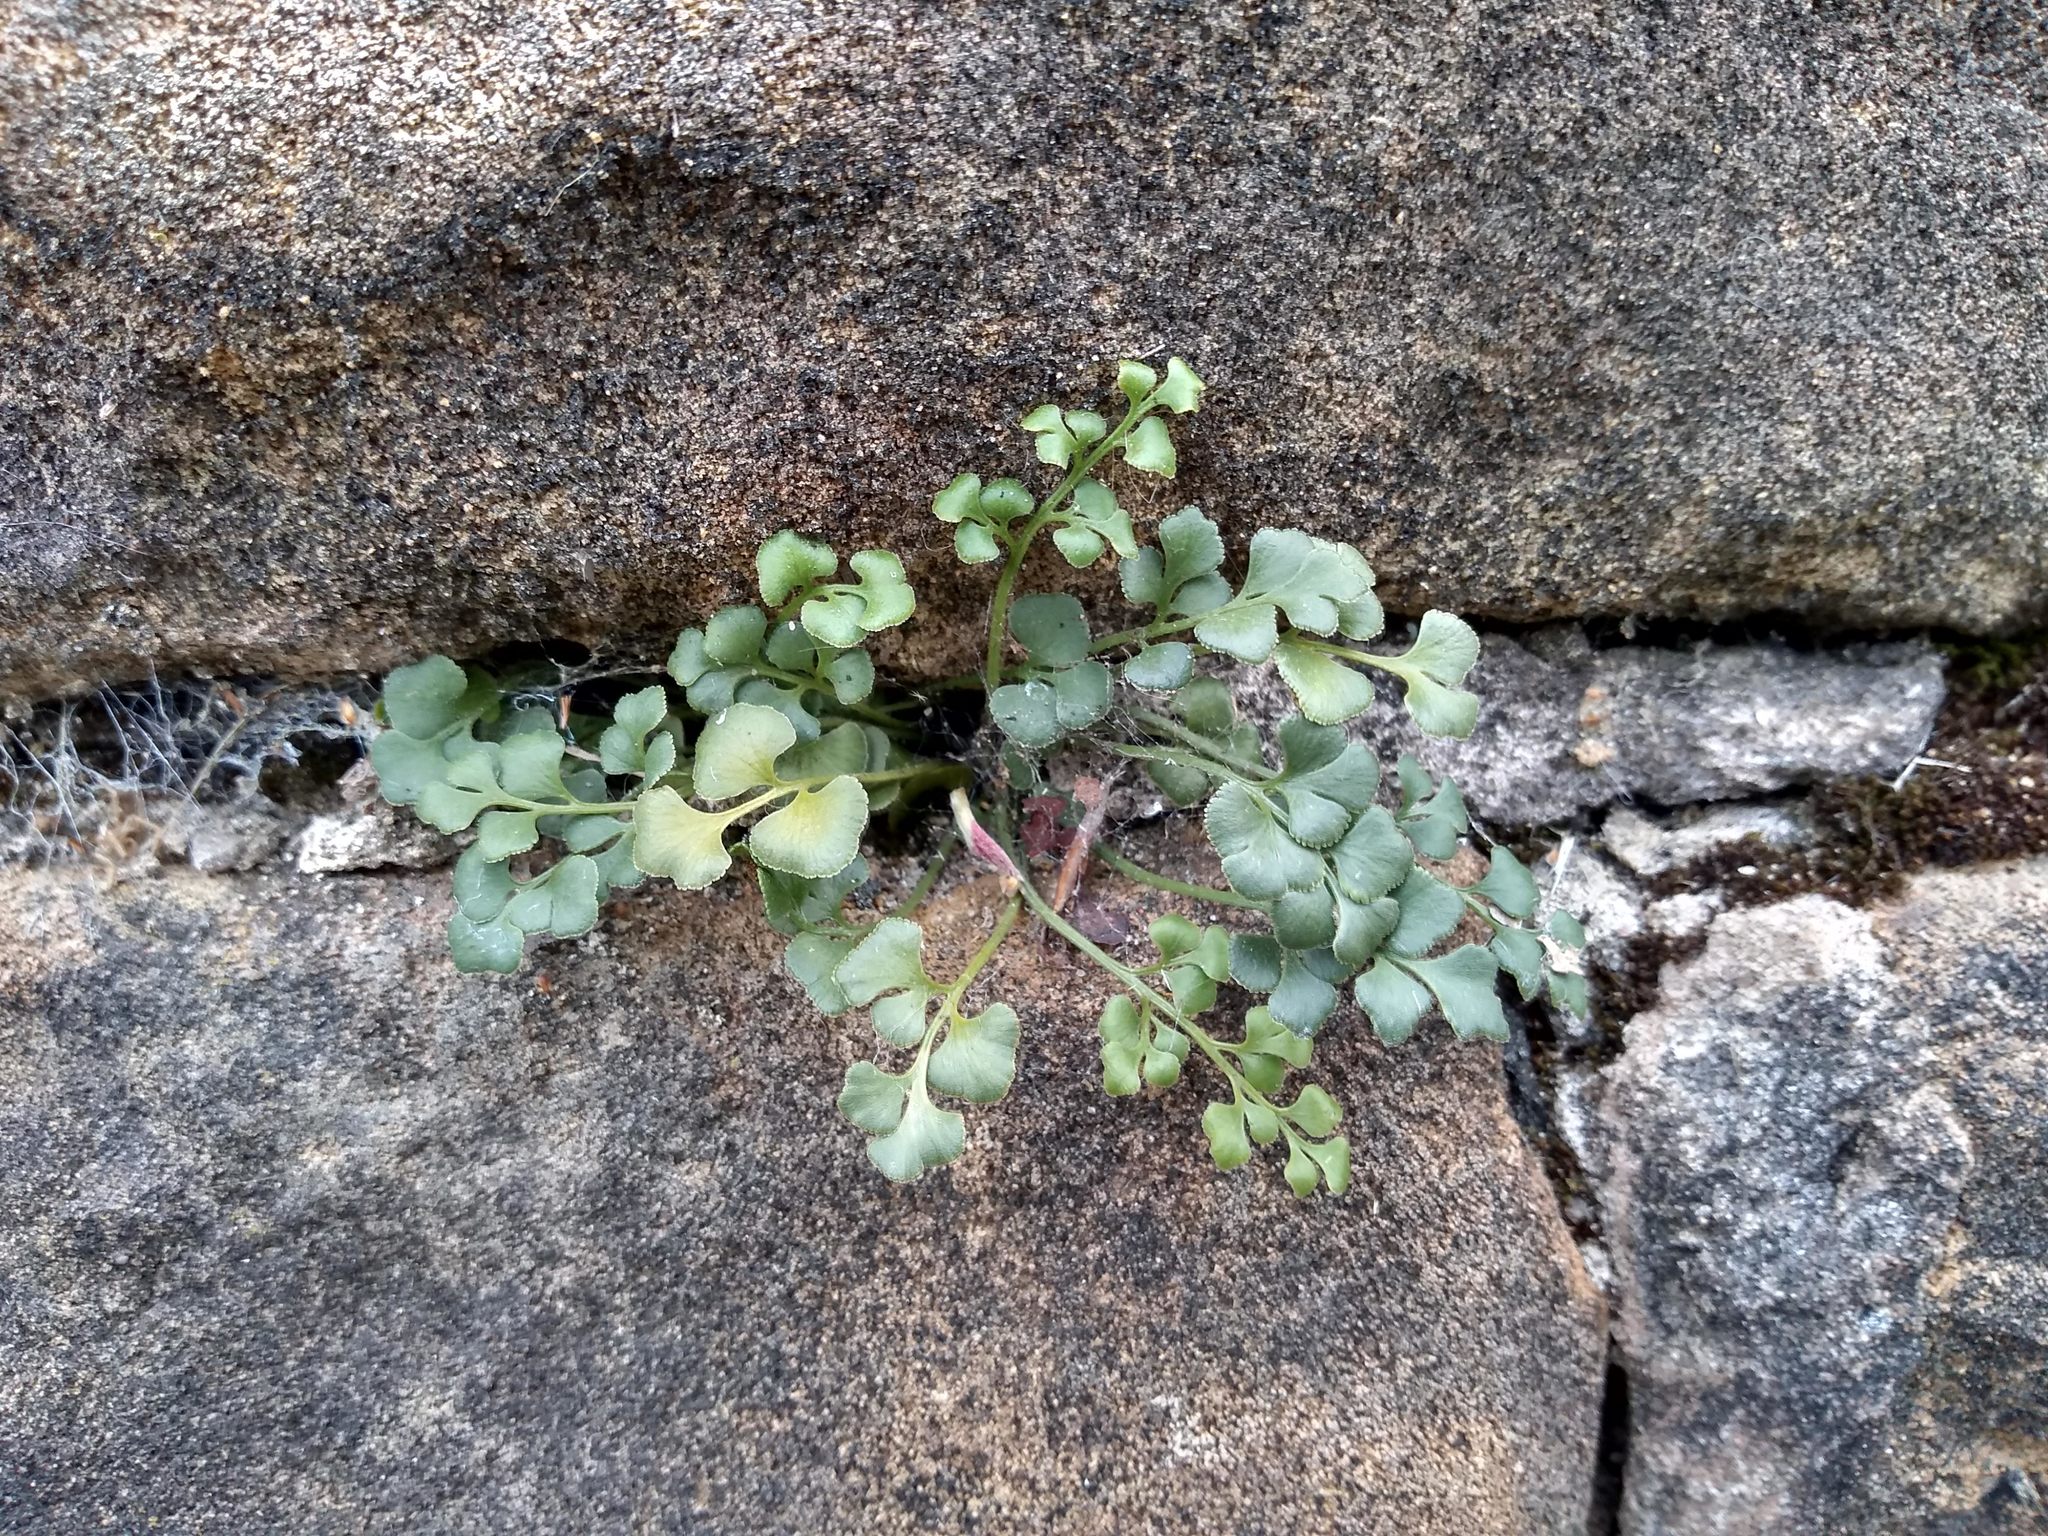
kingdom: Plantae
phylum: Tracheophyta
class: Polypodiopsida
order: Polypodiales
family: Aspleniaceae
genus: Asplenium
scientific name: Asplenium ruta-muraria
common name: Wall-rue
